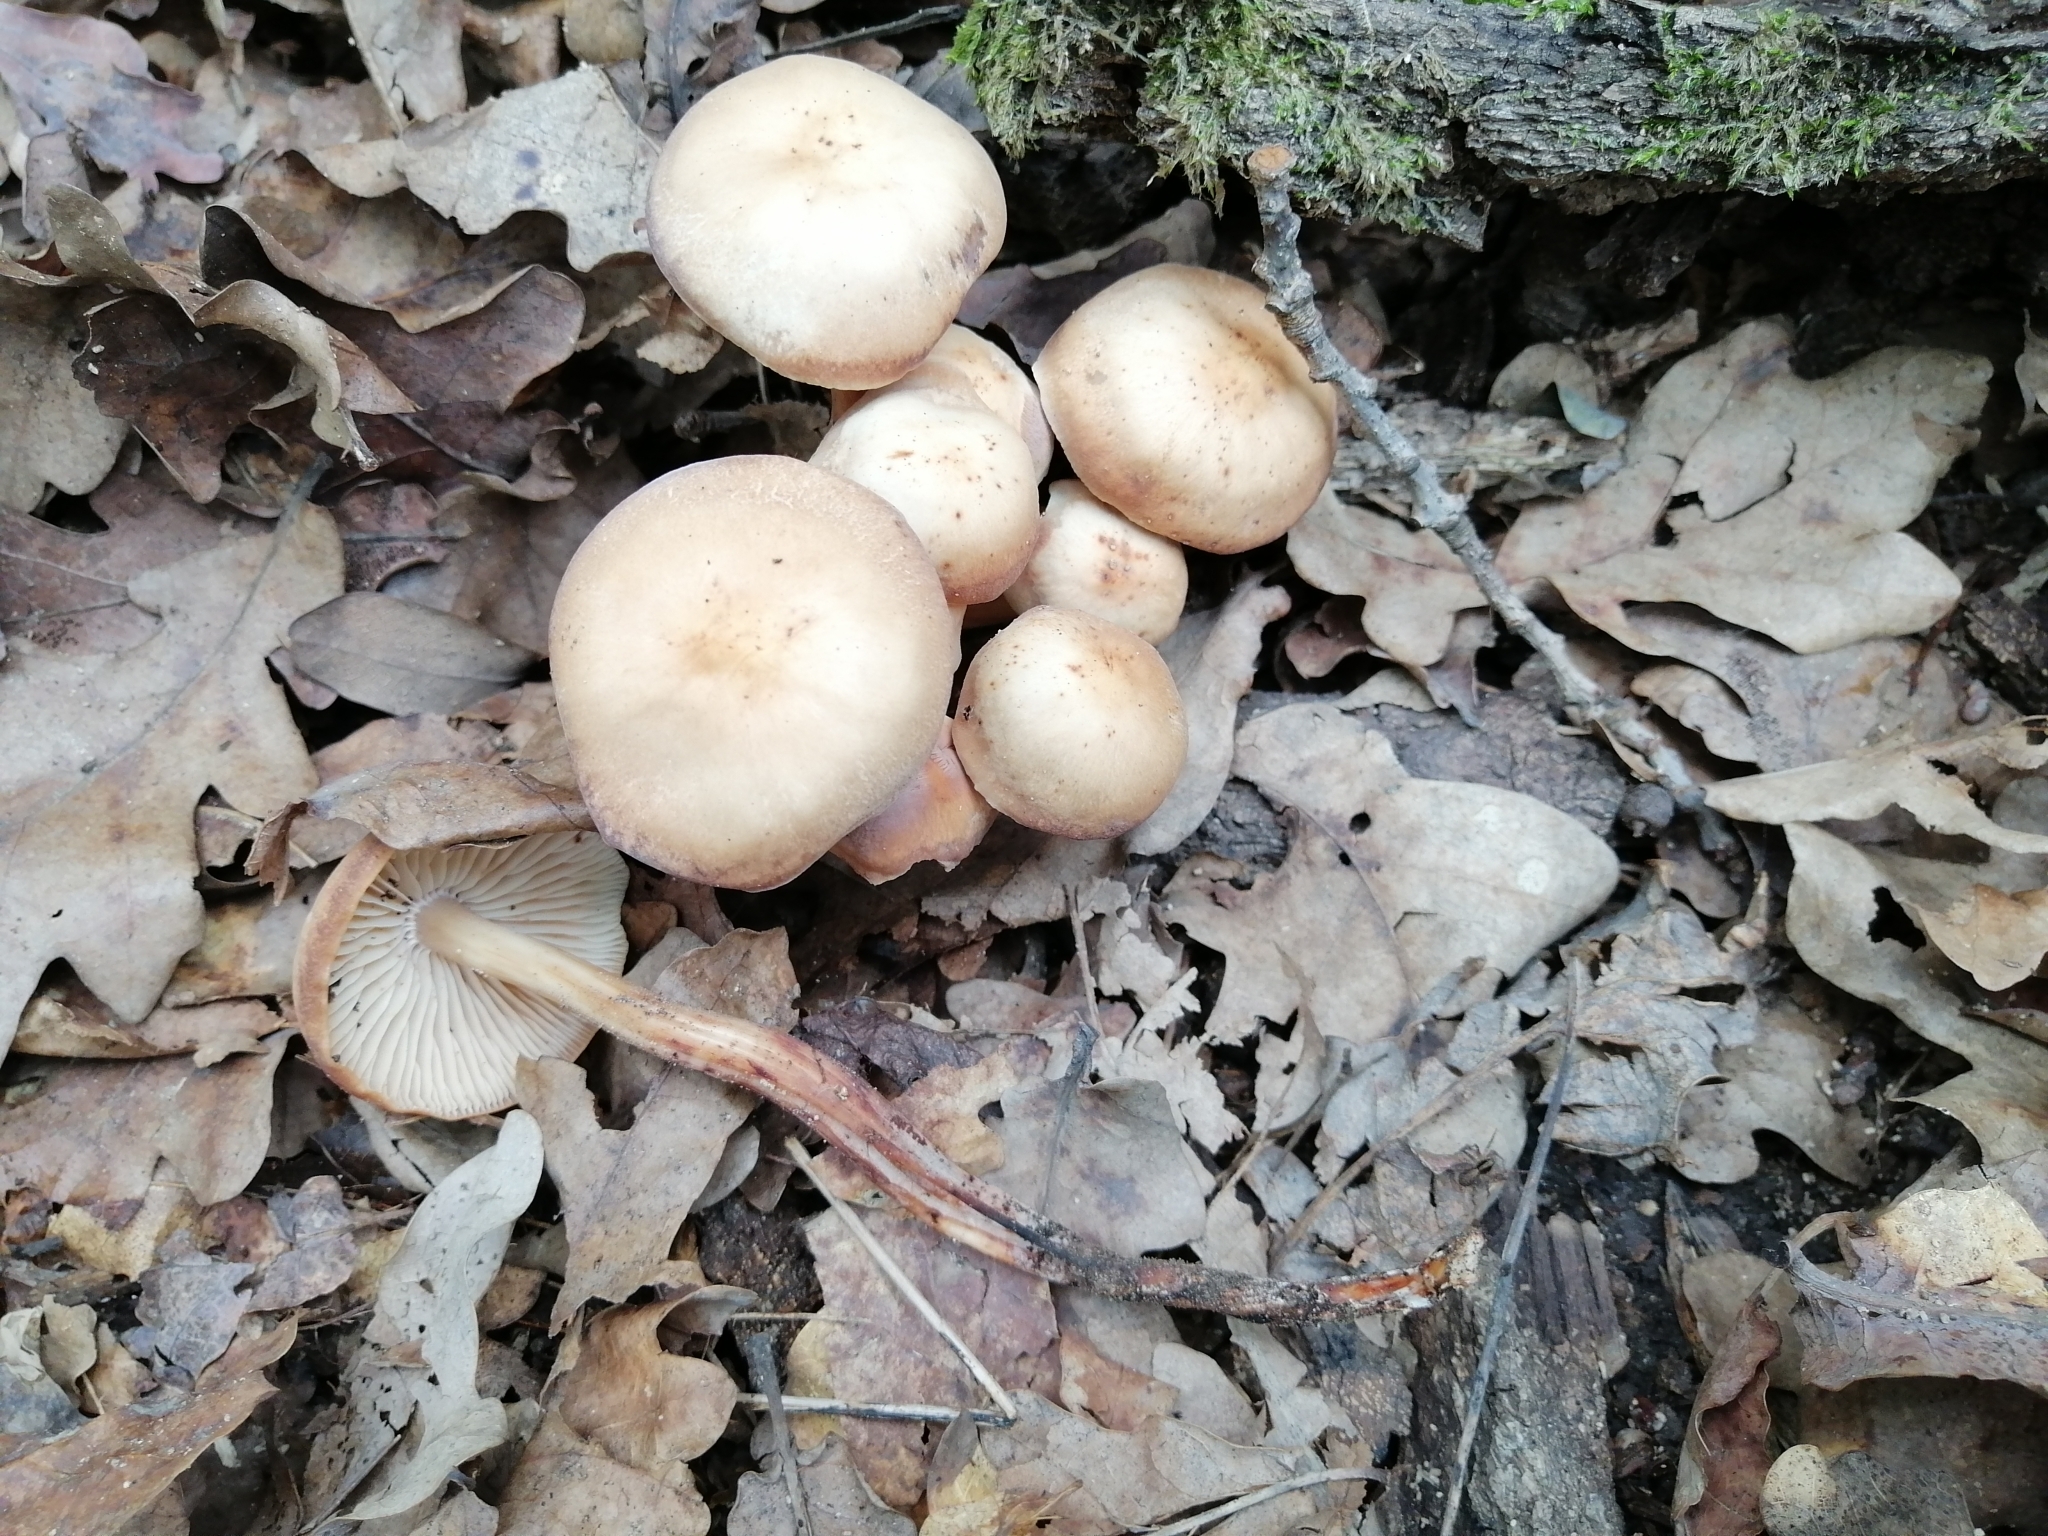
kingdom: Fungi
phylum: Basidiomycota
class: Agaricomycetes
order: Agaricales
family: Omphalotaceae
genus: Gymnopus
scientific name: Gymnopus fusipes
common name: Spindle shank
